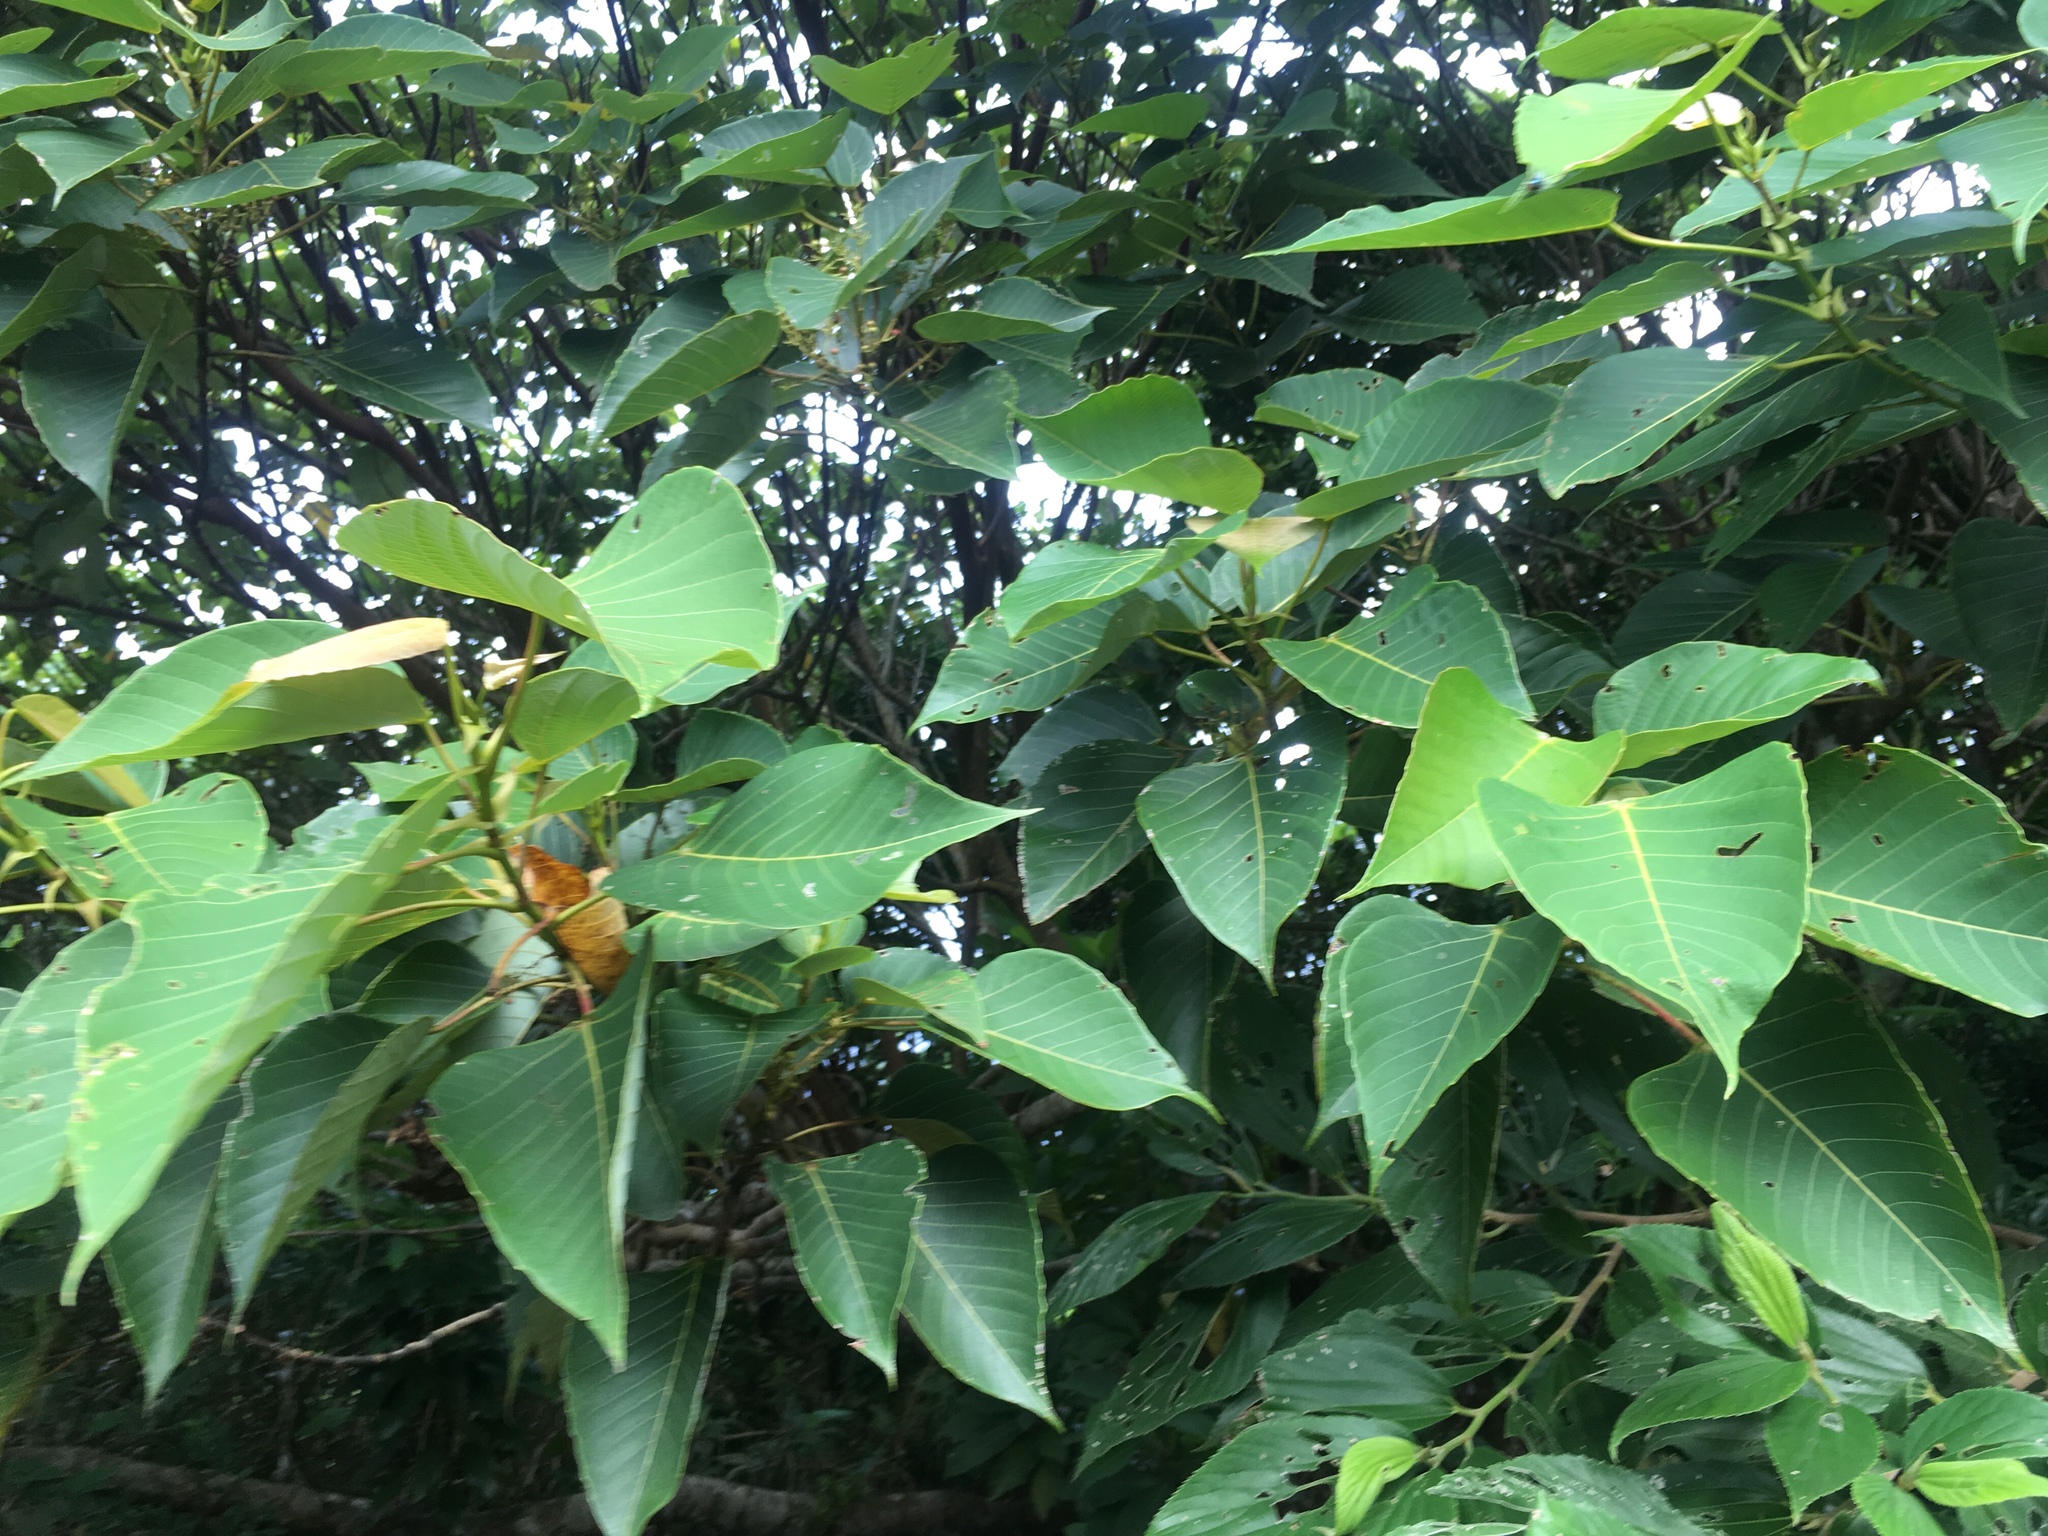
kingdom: Plantae
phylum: Tracheophyta
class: Magnoliopsida
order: Malpighiales
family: Euphorbiaceae
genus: Macaranga
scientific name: Macaranga sinensis
